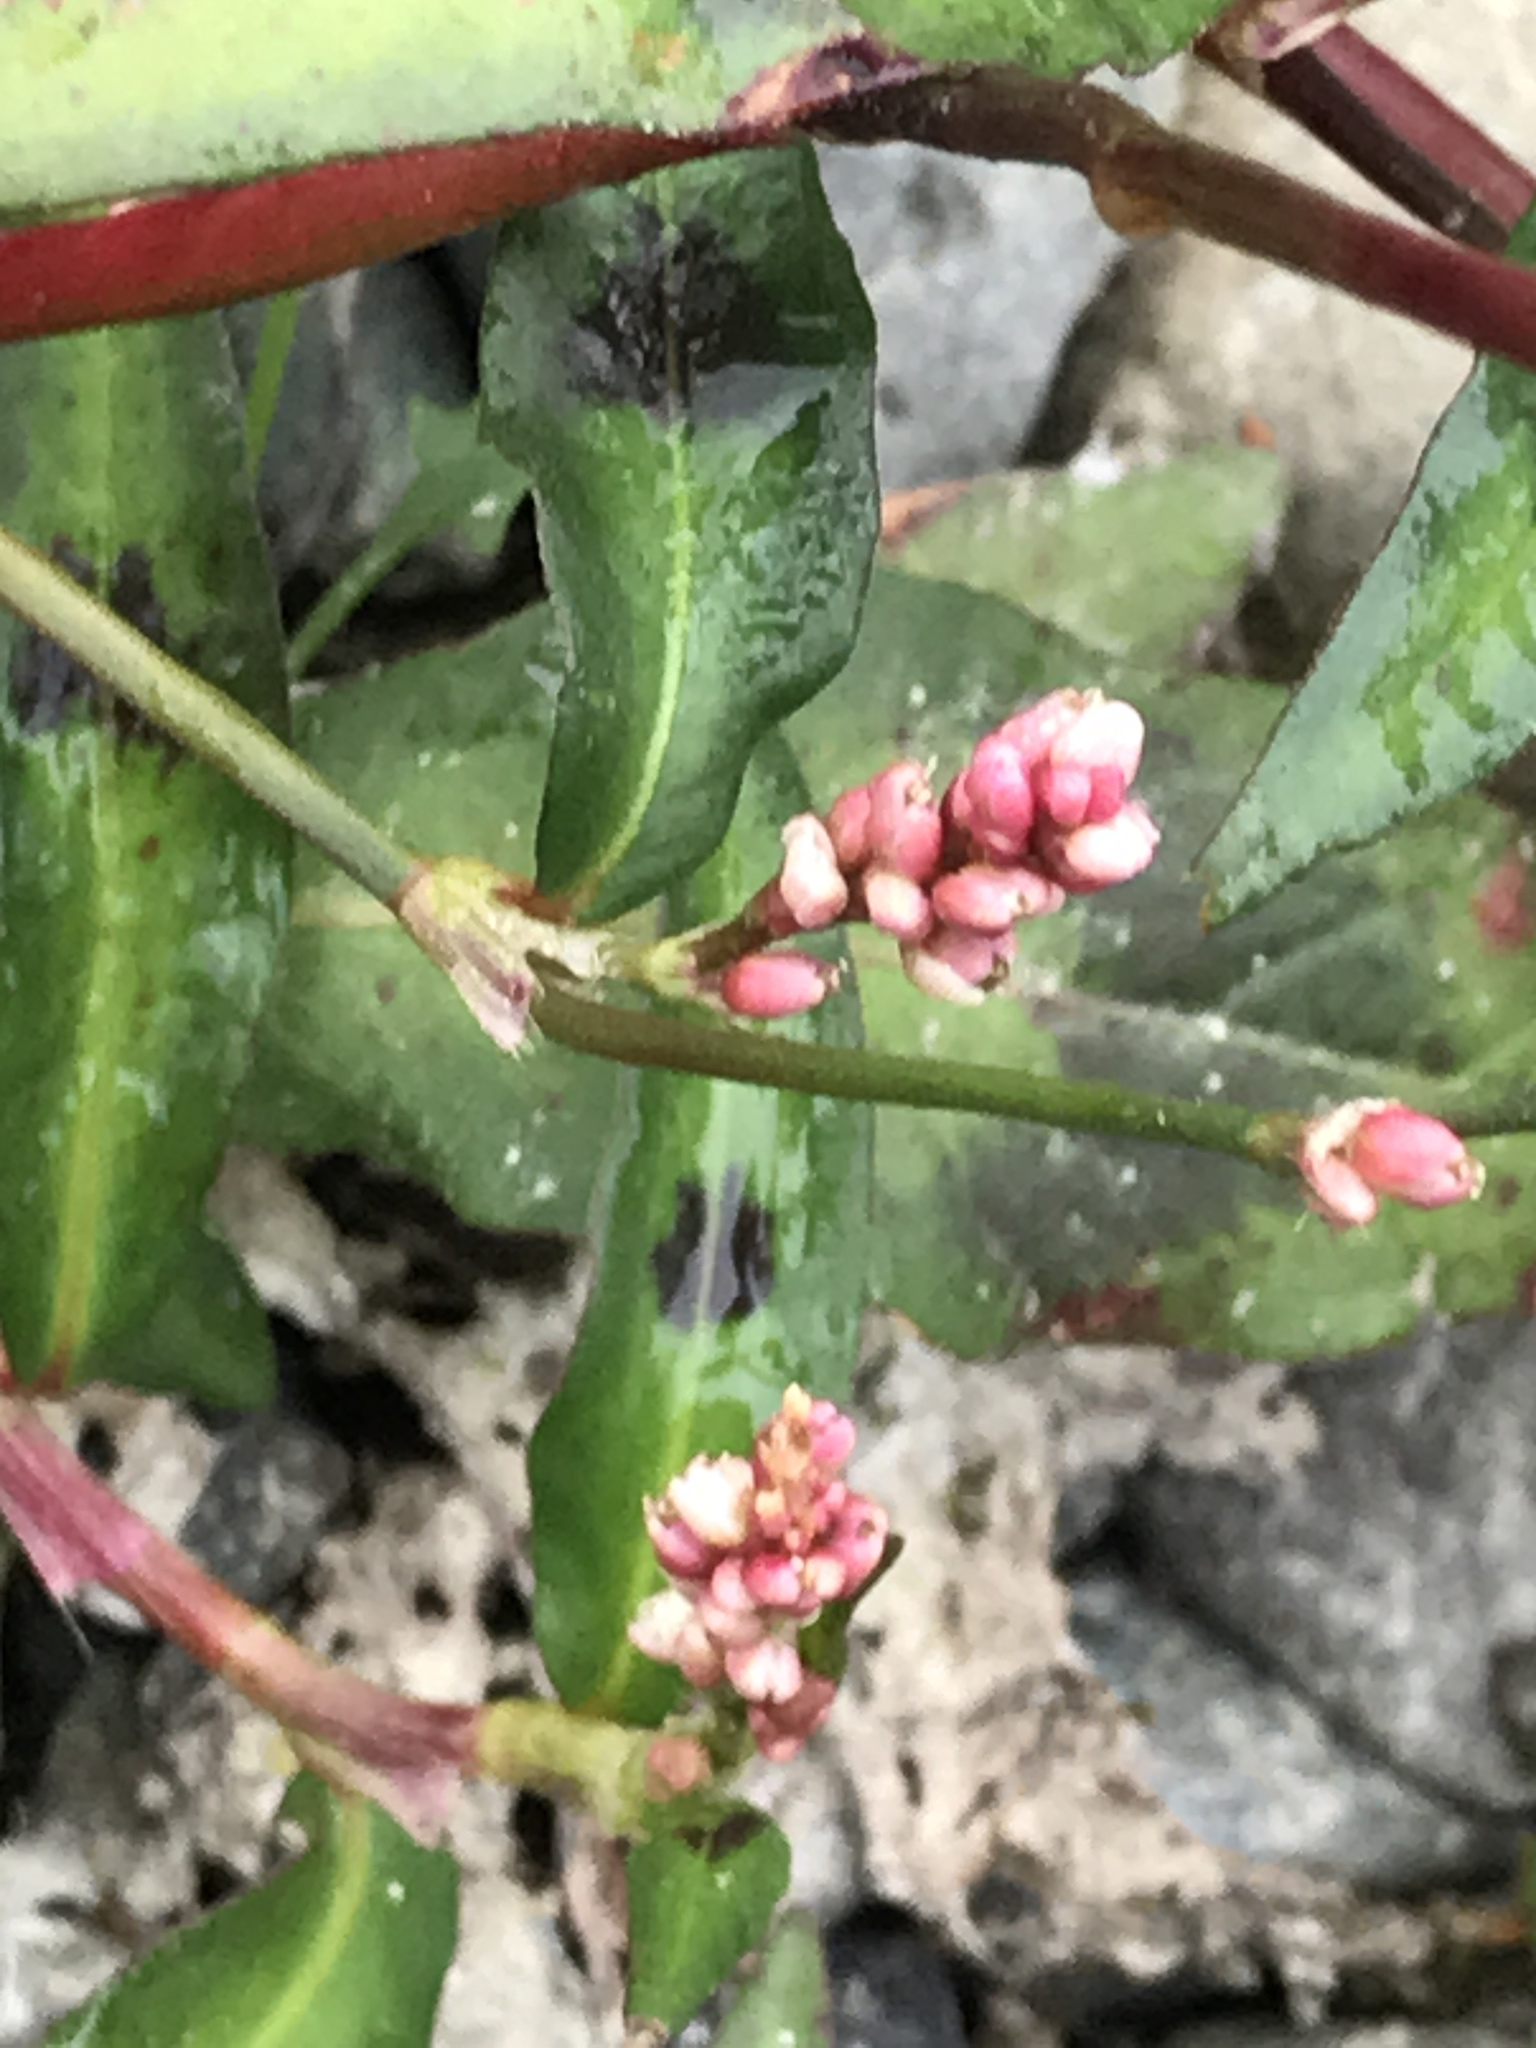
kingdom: Plantae
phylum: Tracheophyta
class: Magnoliopsida
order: Caryophyllales
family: Polygonaceae
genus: Persicaria
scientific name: Persicaria maculosa
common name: Redshank
